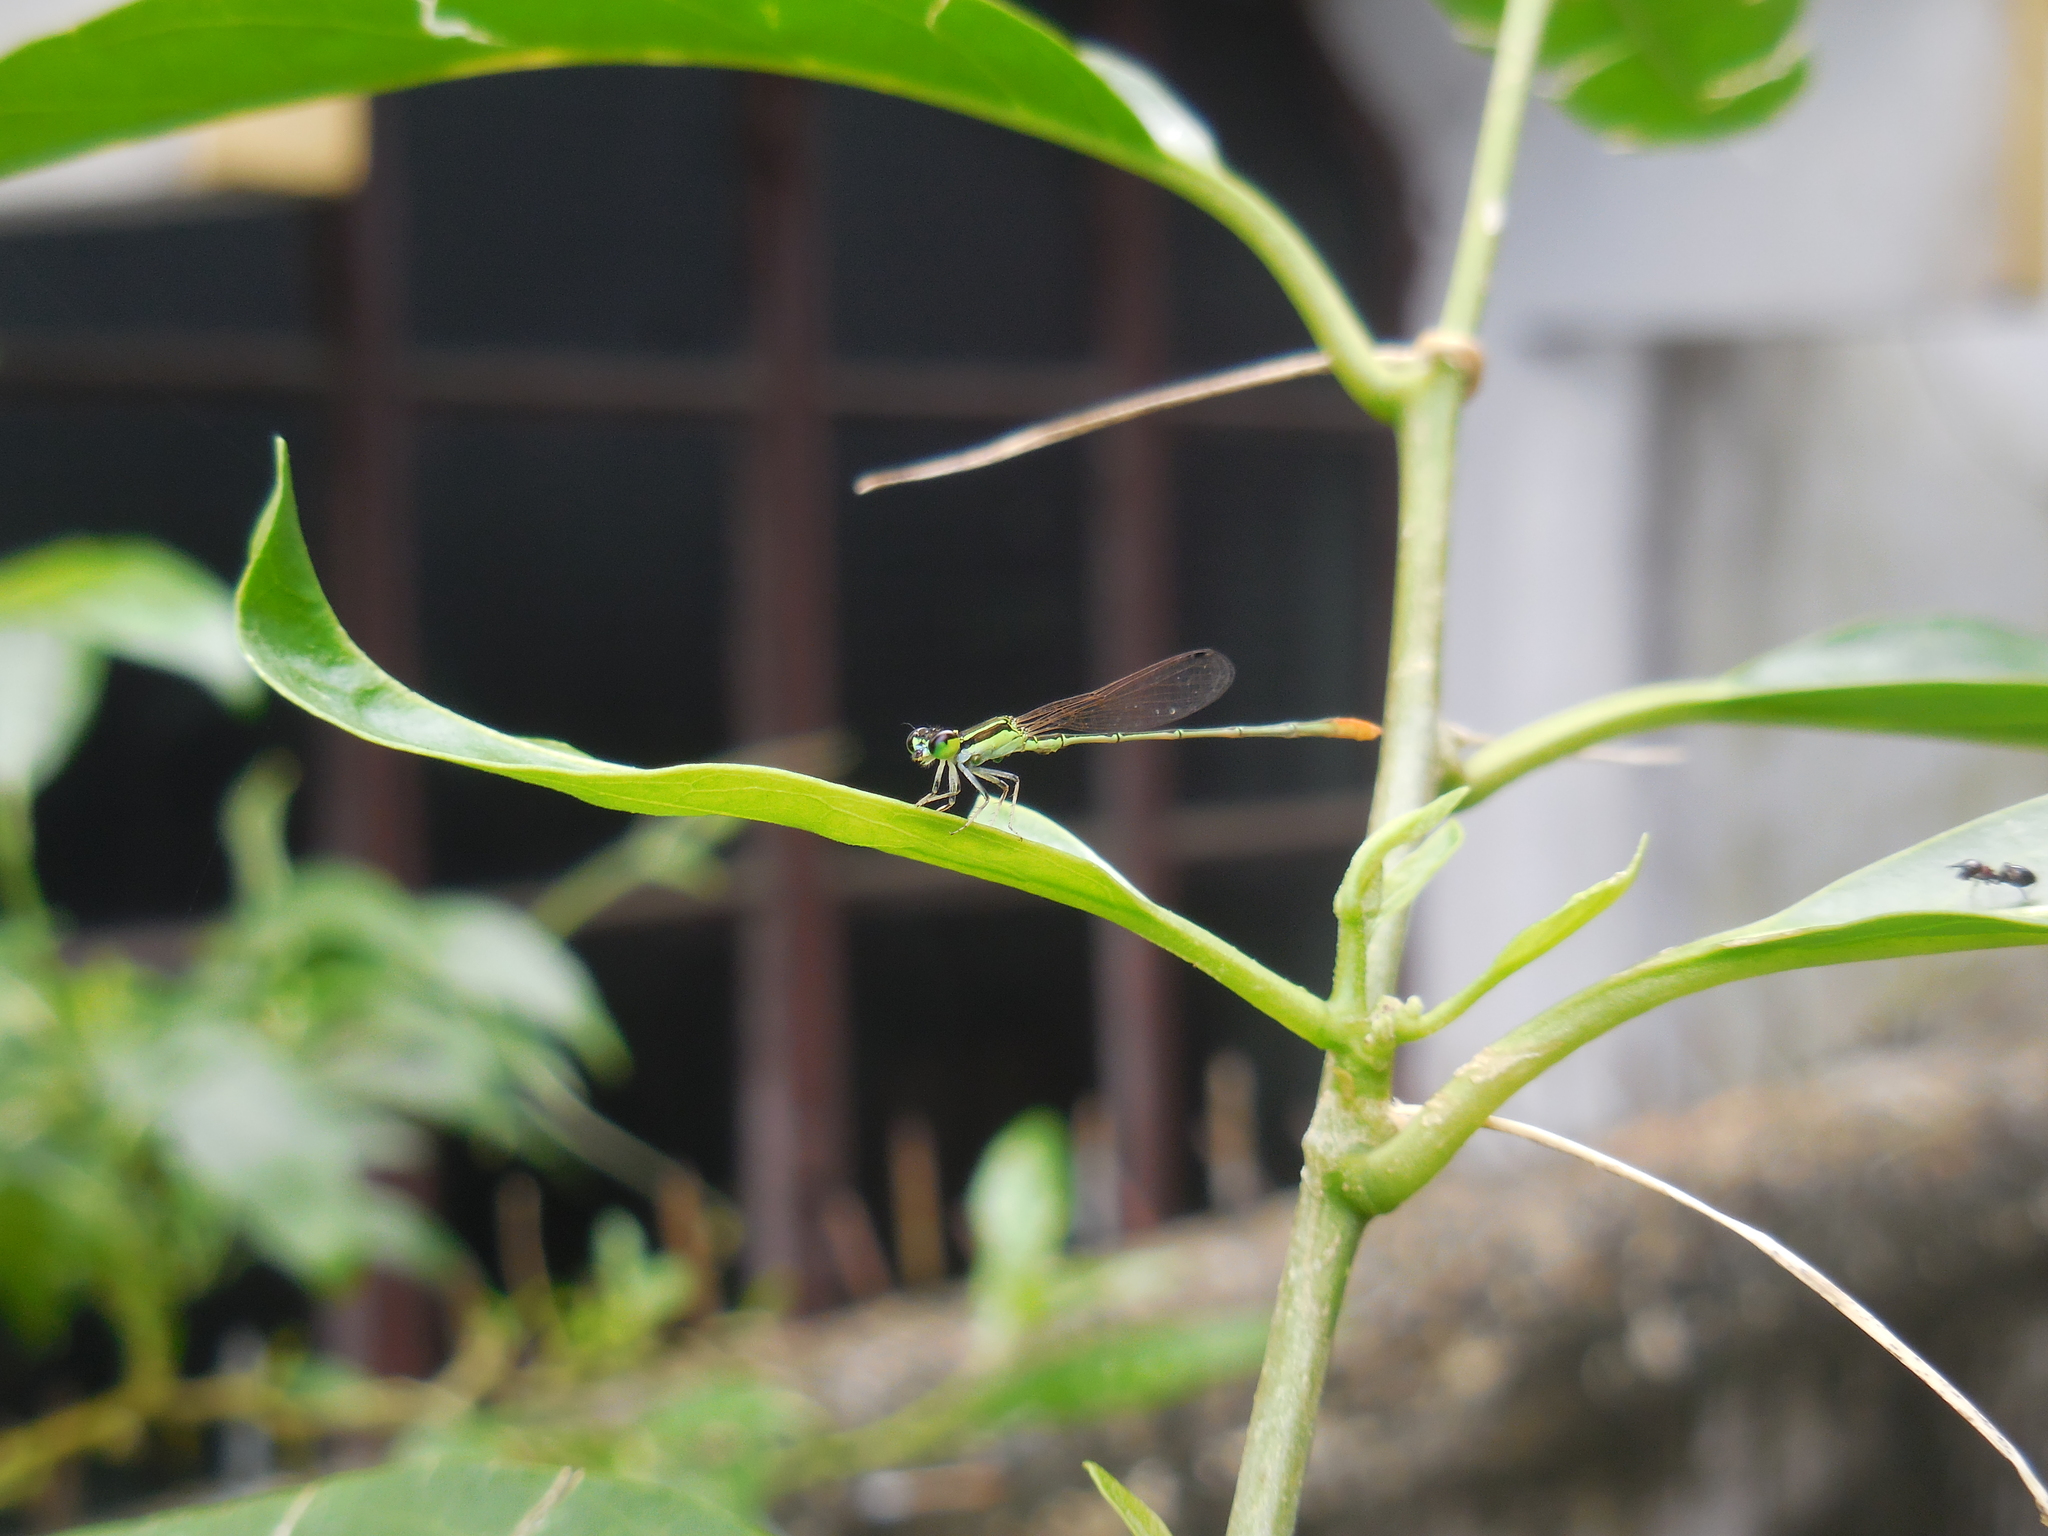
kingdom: Animalia
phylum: Arthropoda
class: Insecta
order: Odonata
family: Coenagrionidae
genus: Agriocnemis
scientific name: Agriocnemis pygmaea
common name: Pygmy wisp
